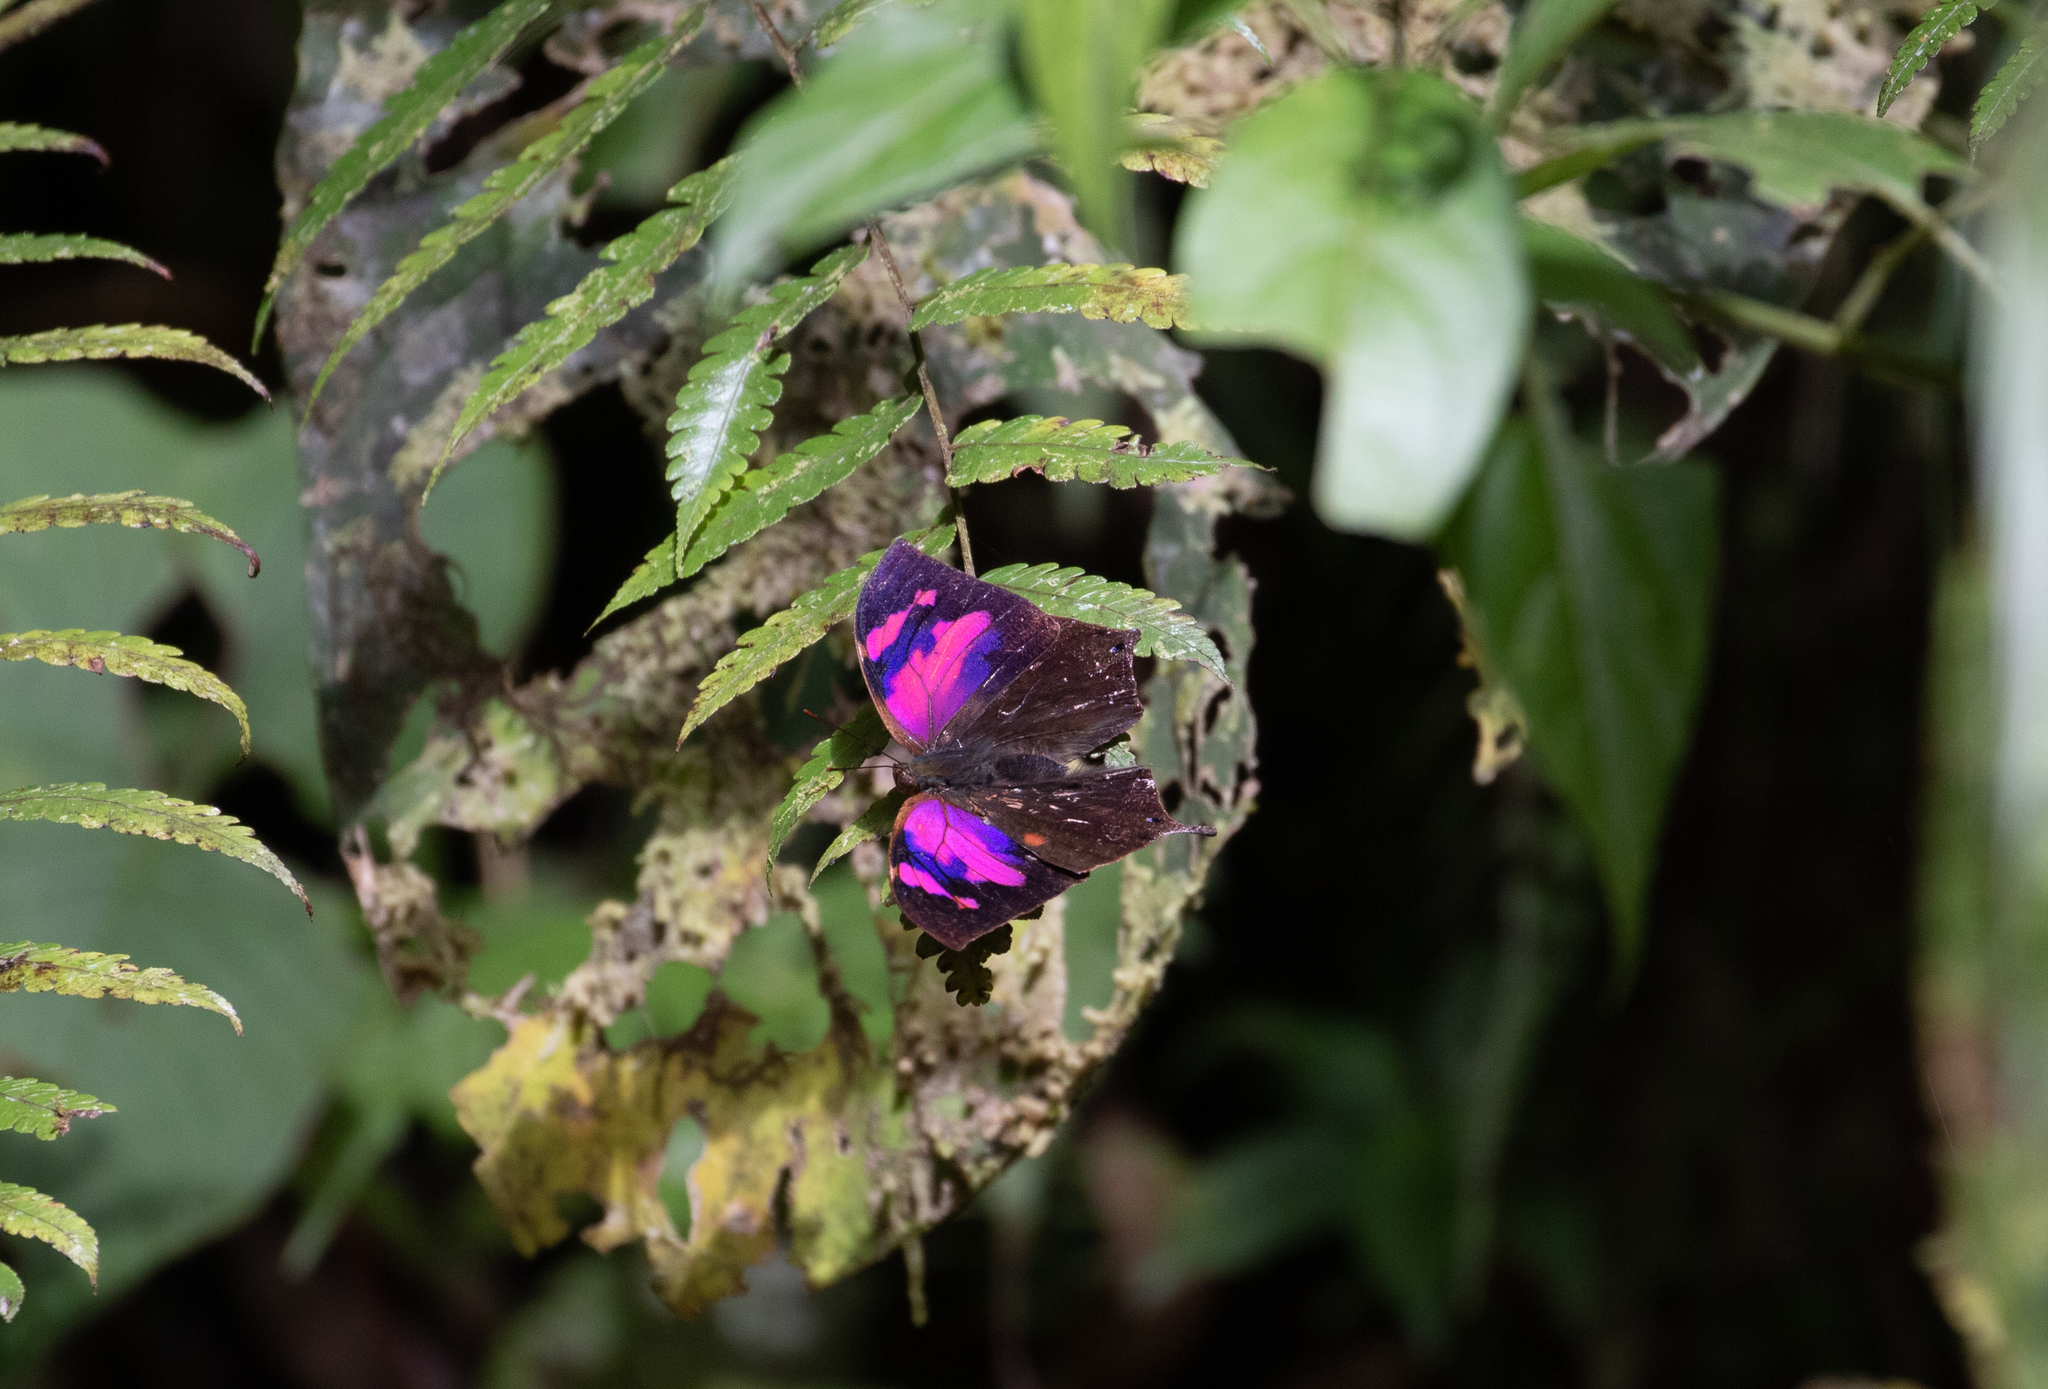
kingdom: Animalia
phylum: Arthropoda
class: Insecta
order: Lepidoptera
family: Nymphalidae
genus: Fountainea
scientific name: Fountainea
